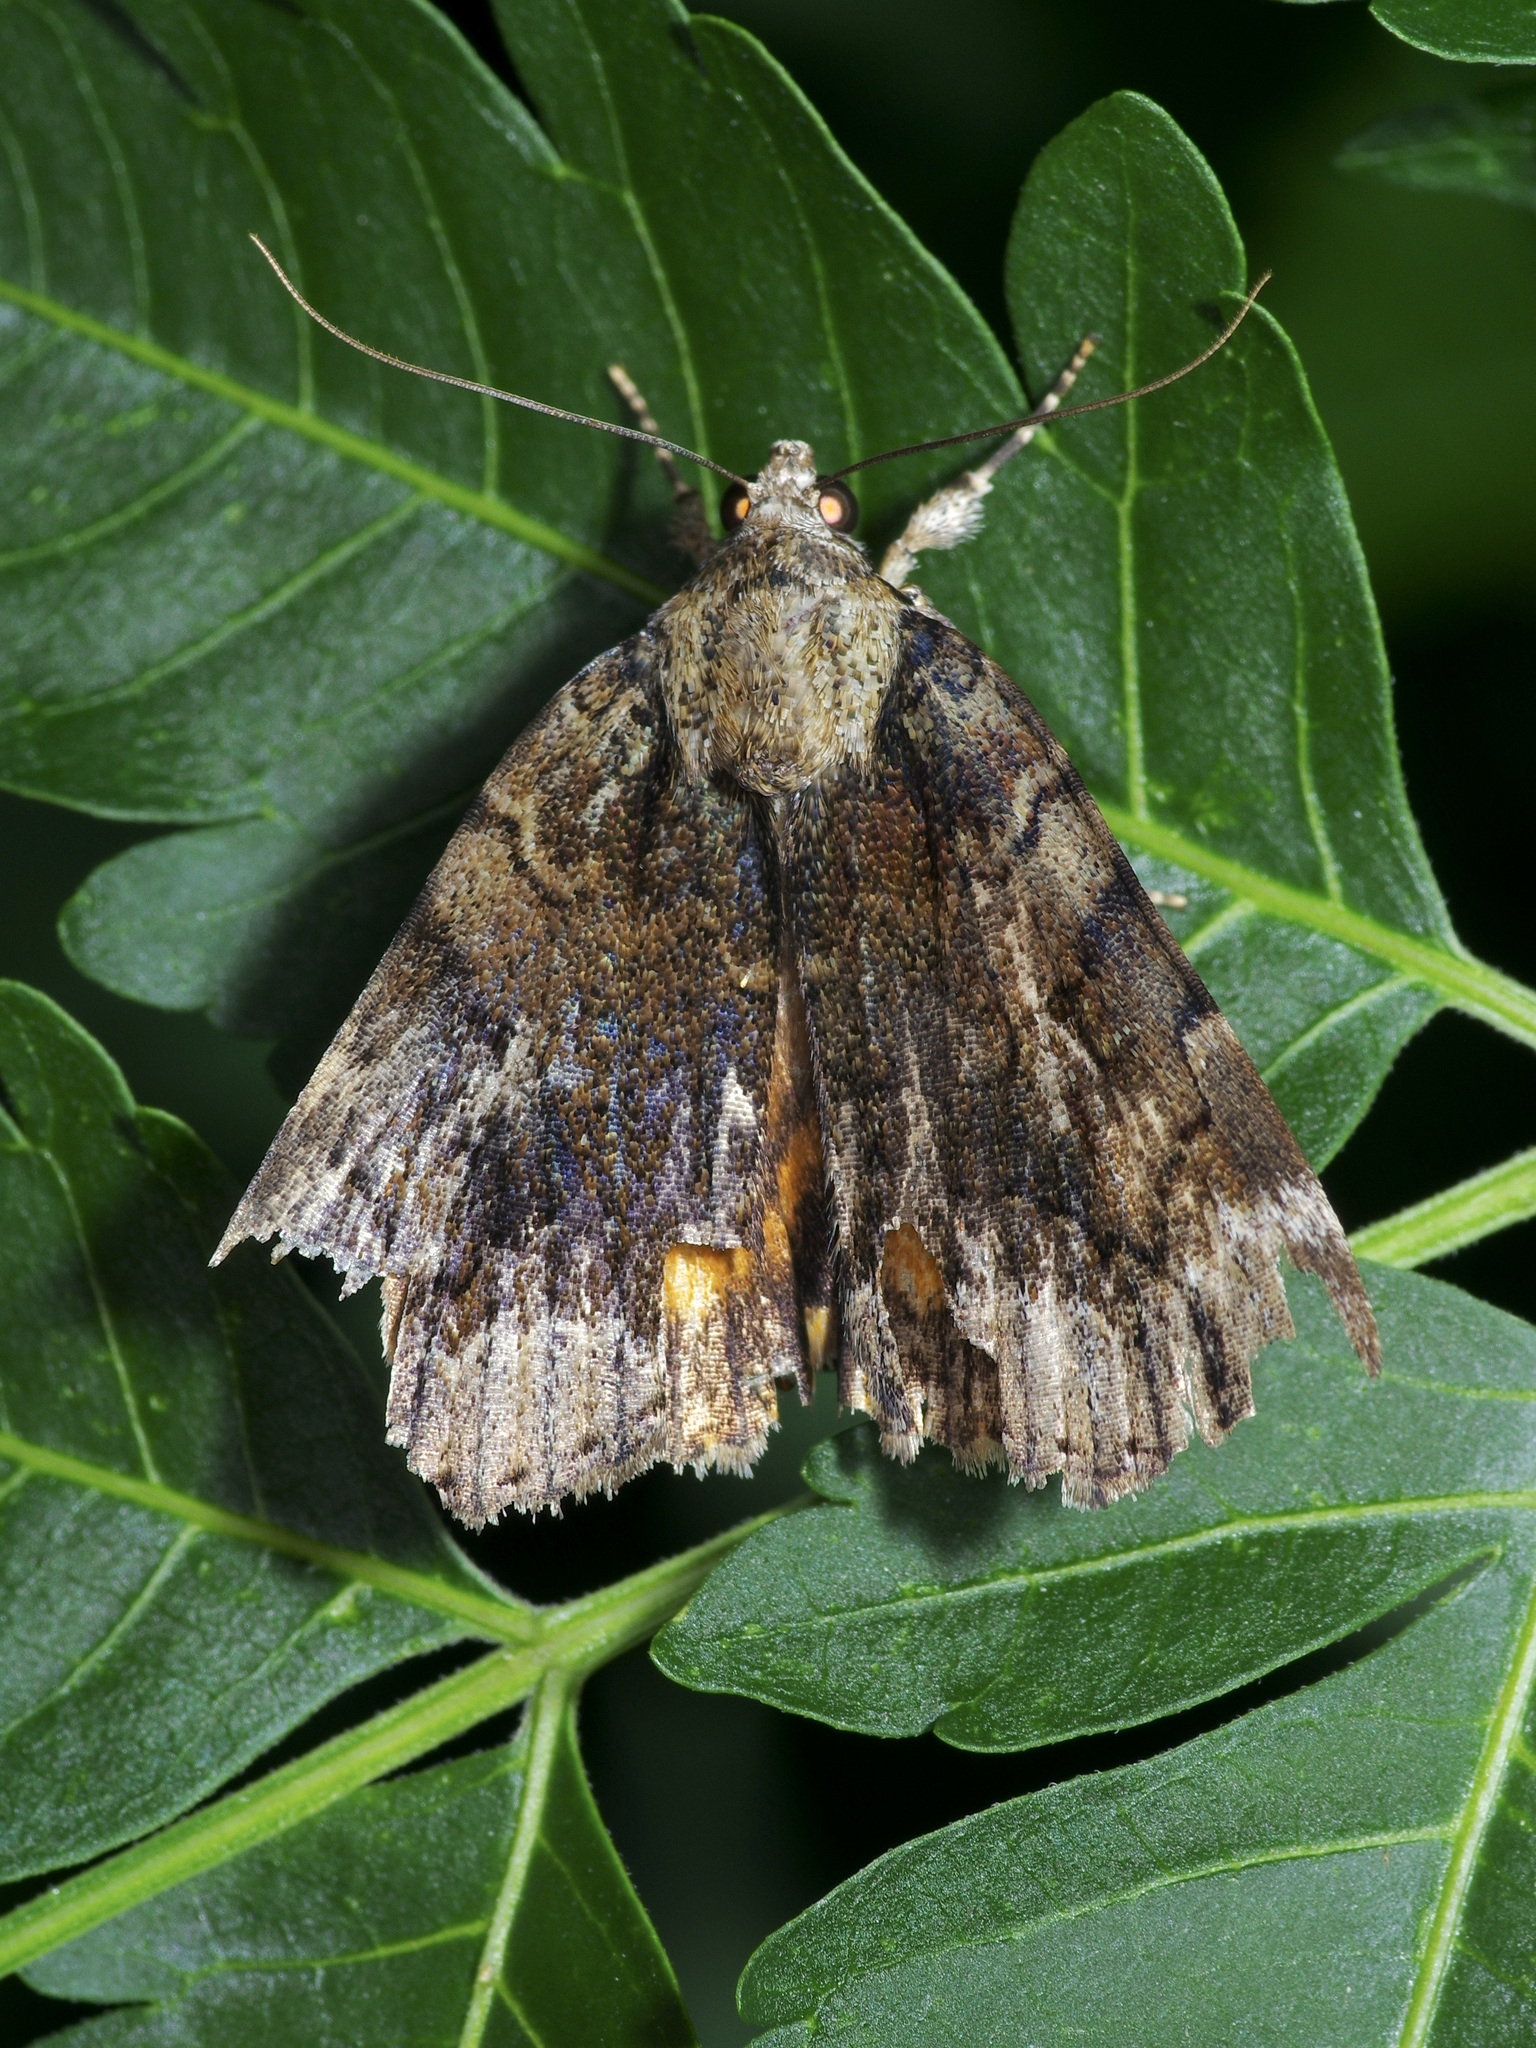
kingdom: Animalia
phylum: Arthropoda
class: Insecta
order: Lepidoptera
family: Erebidae
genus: Catocala
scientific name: Catocala micronympha
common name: Little nymph underwing
